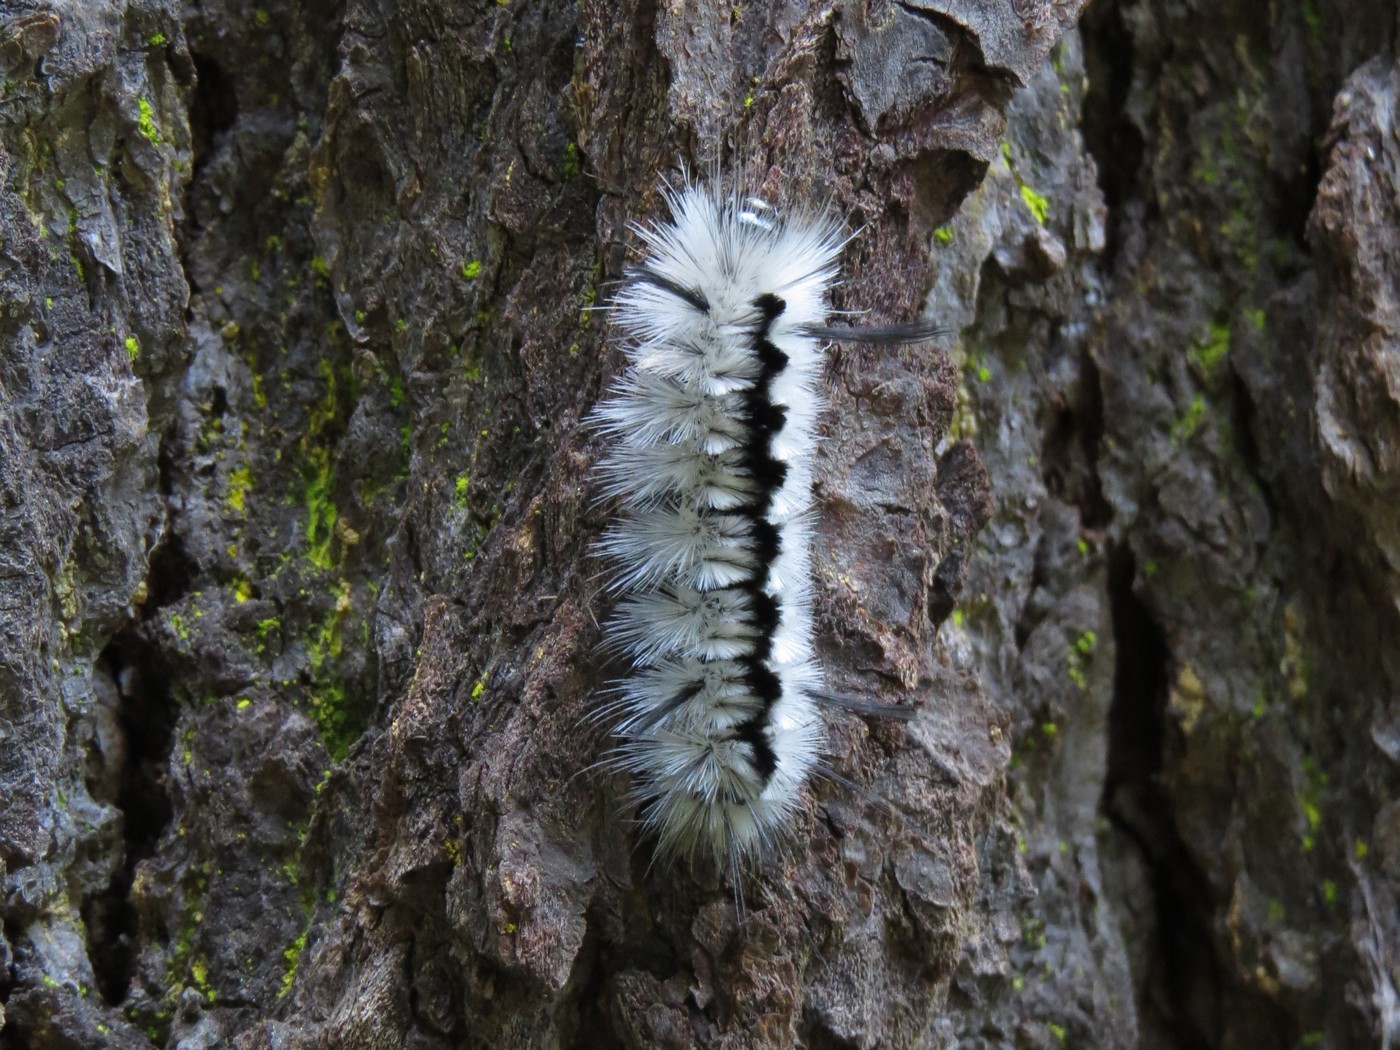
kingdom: Animalia
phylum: Arthropoda
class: Insecta
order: Lepidoptera
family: Erebidae
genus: Lophocampa
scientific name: Lophocampa caryae
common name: Hickory tussock moth
